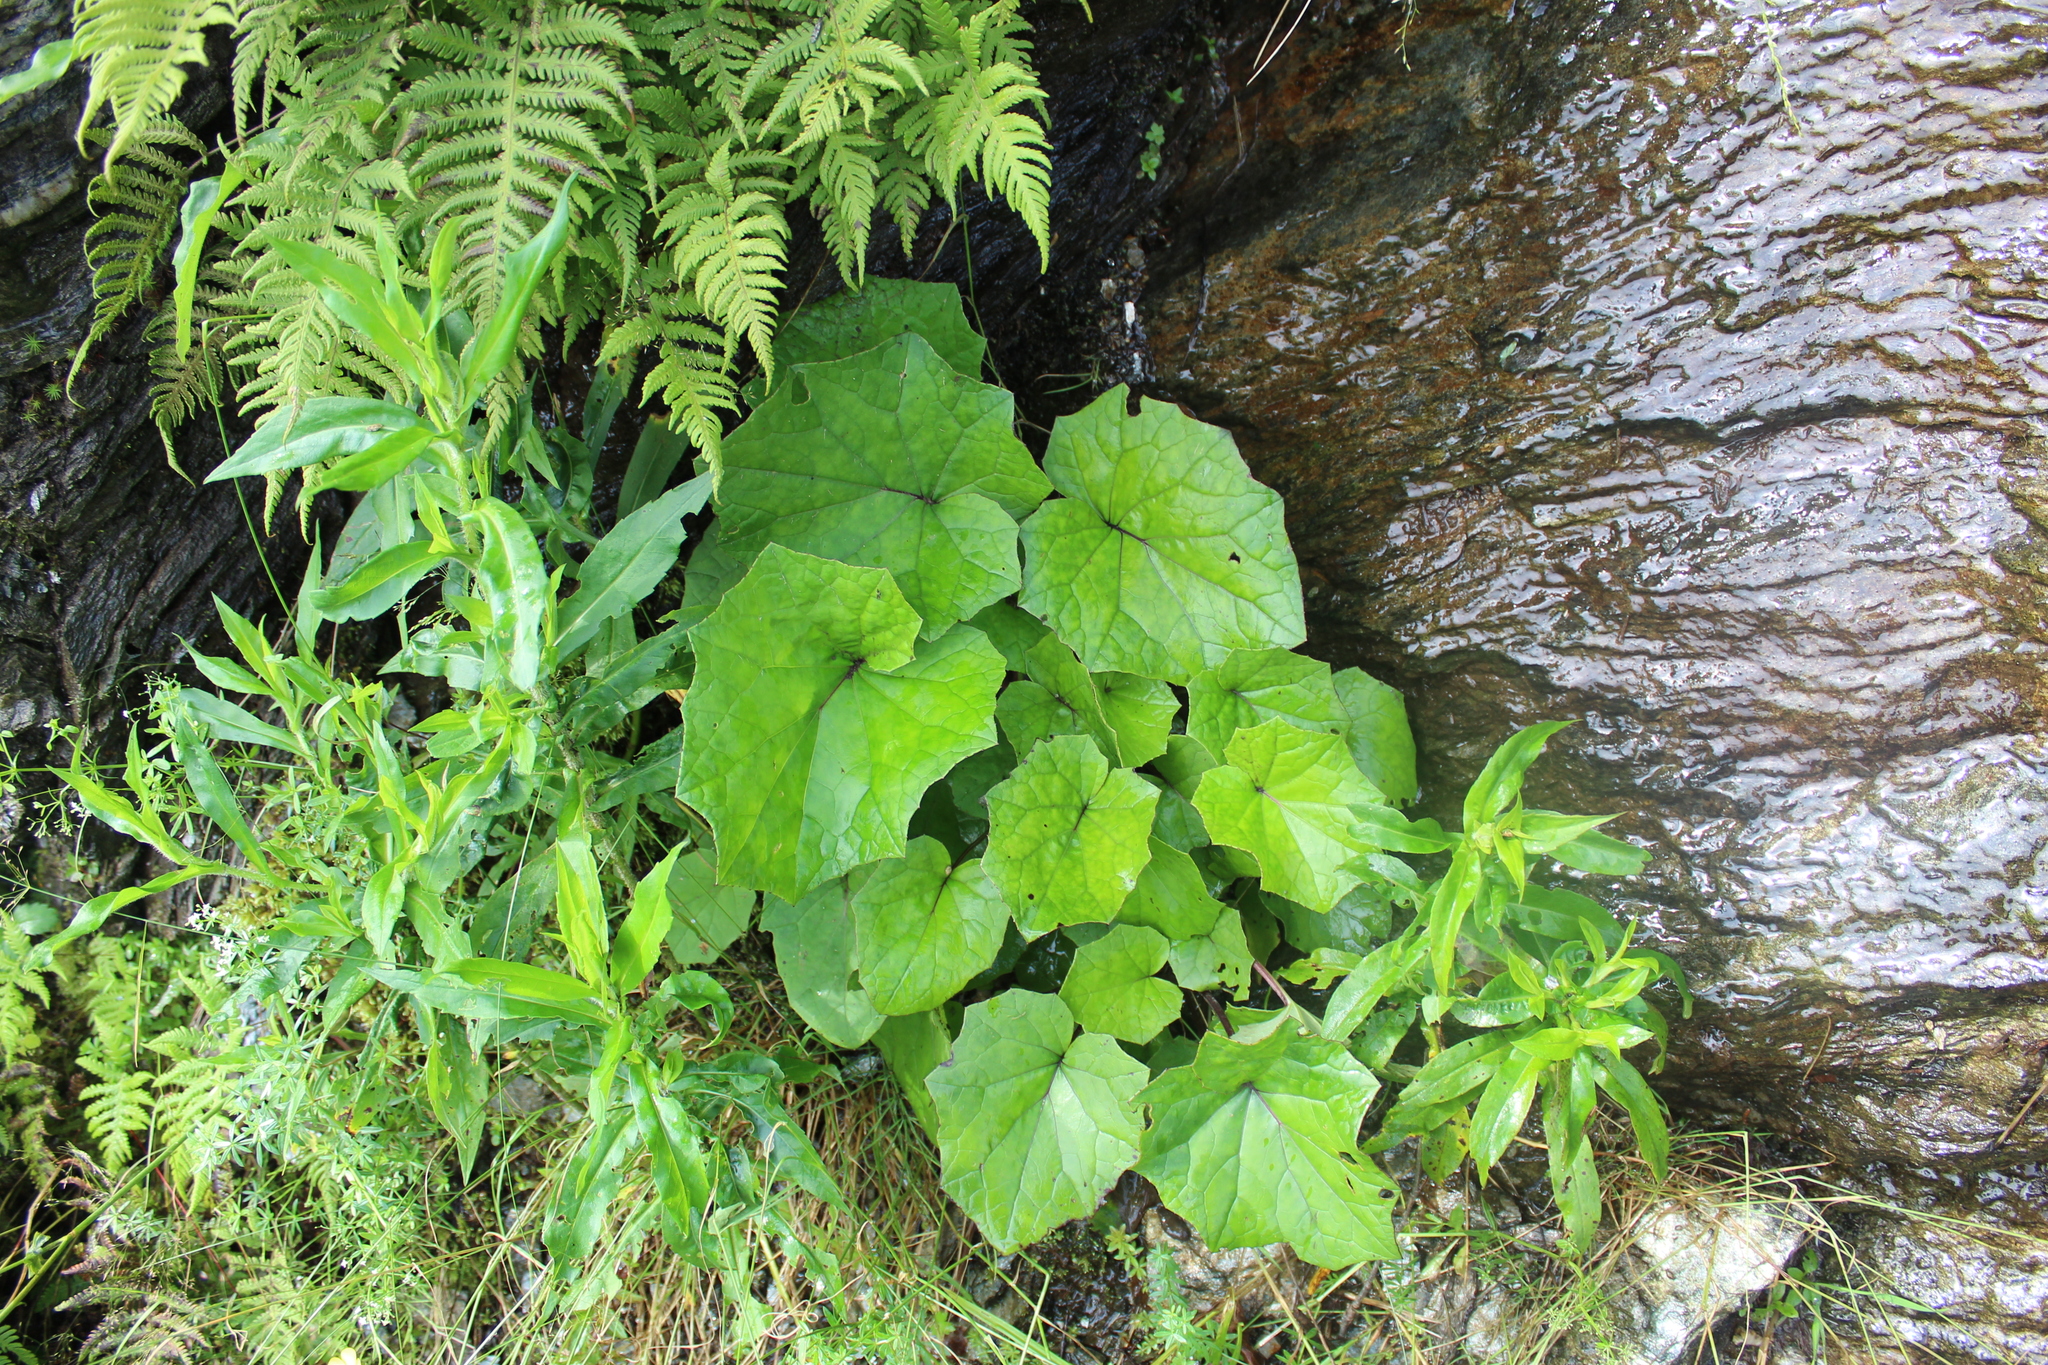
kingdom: Plantae
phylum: Tracheophyta
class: Magnoliopsida
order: Asterales
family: Asteraceae
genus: Tussilago
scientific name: Tussilago farfara
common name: Coltsfoot
